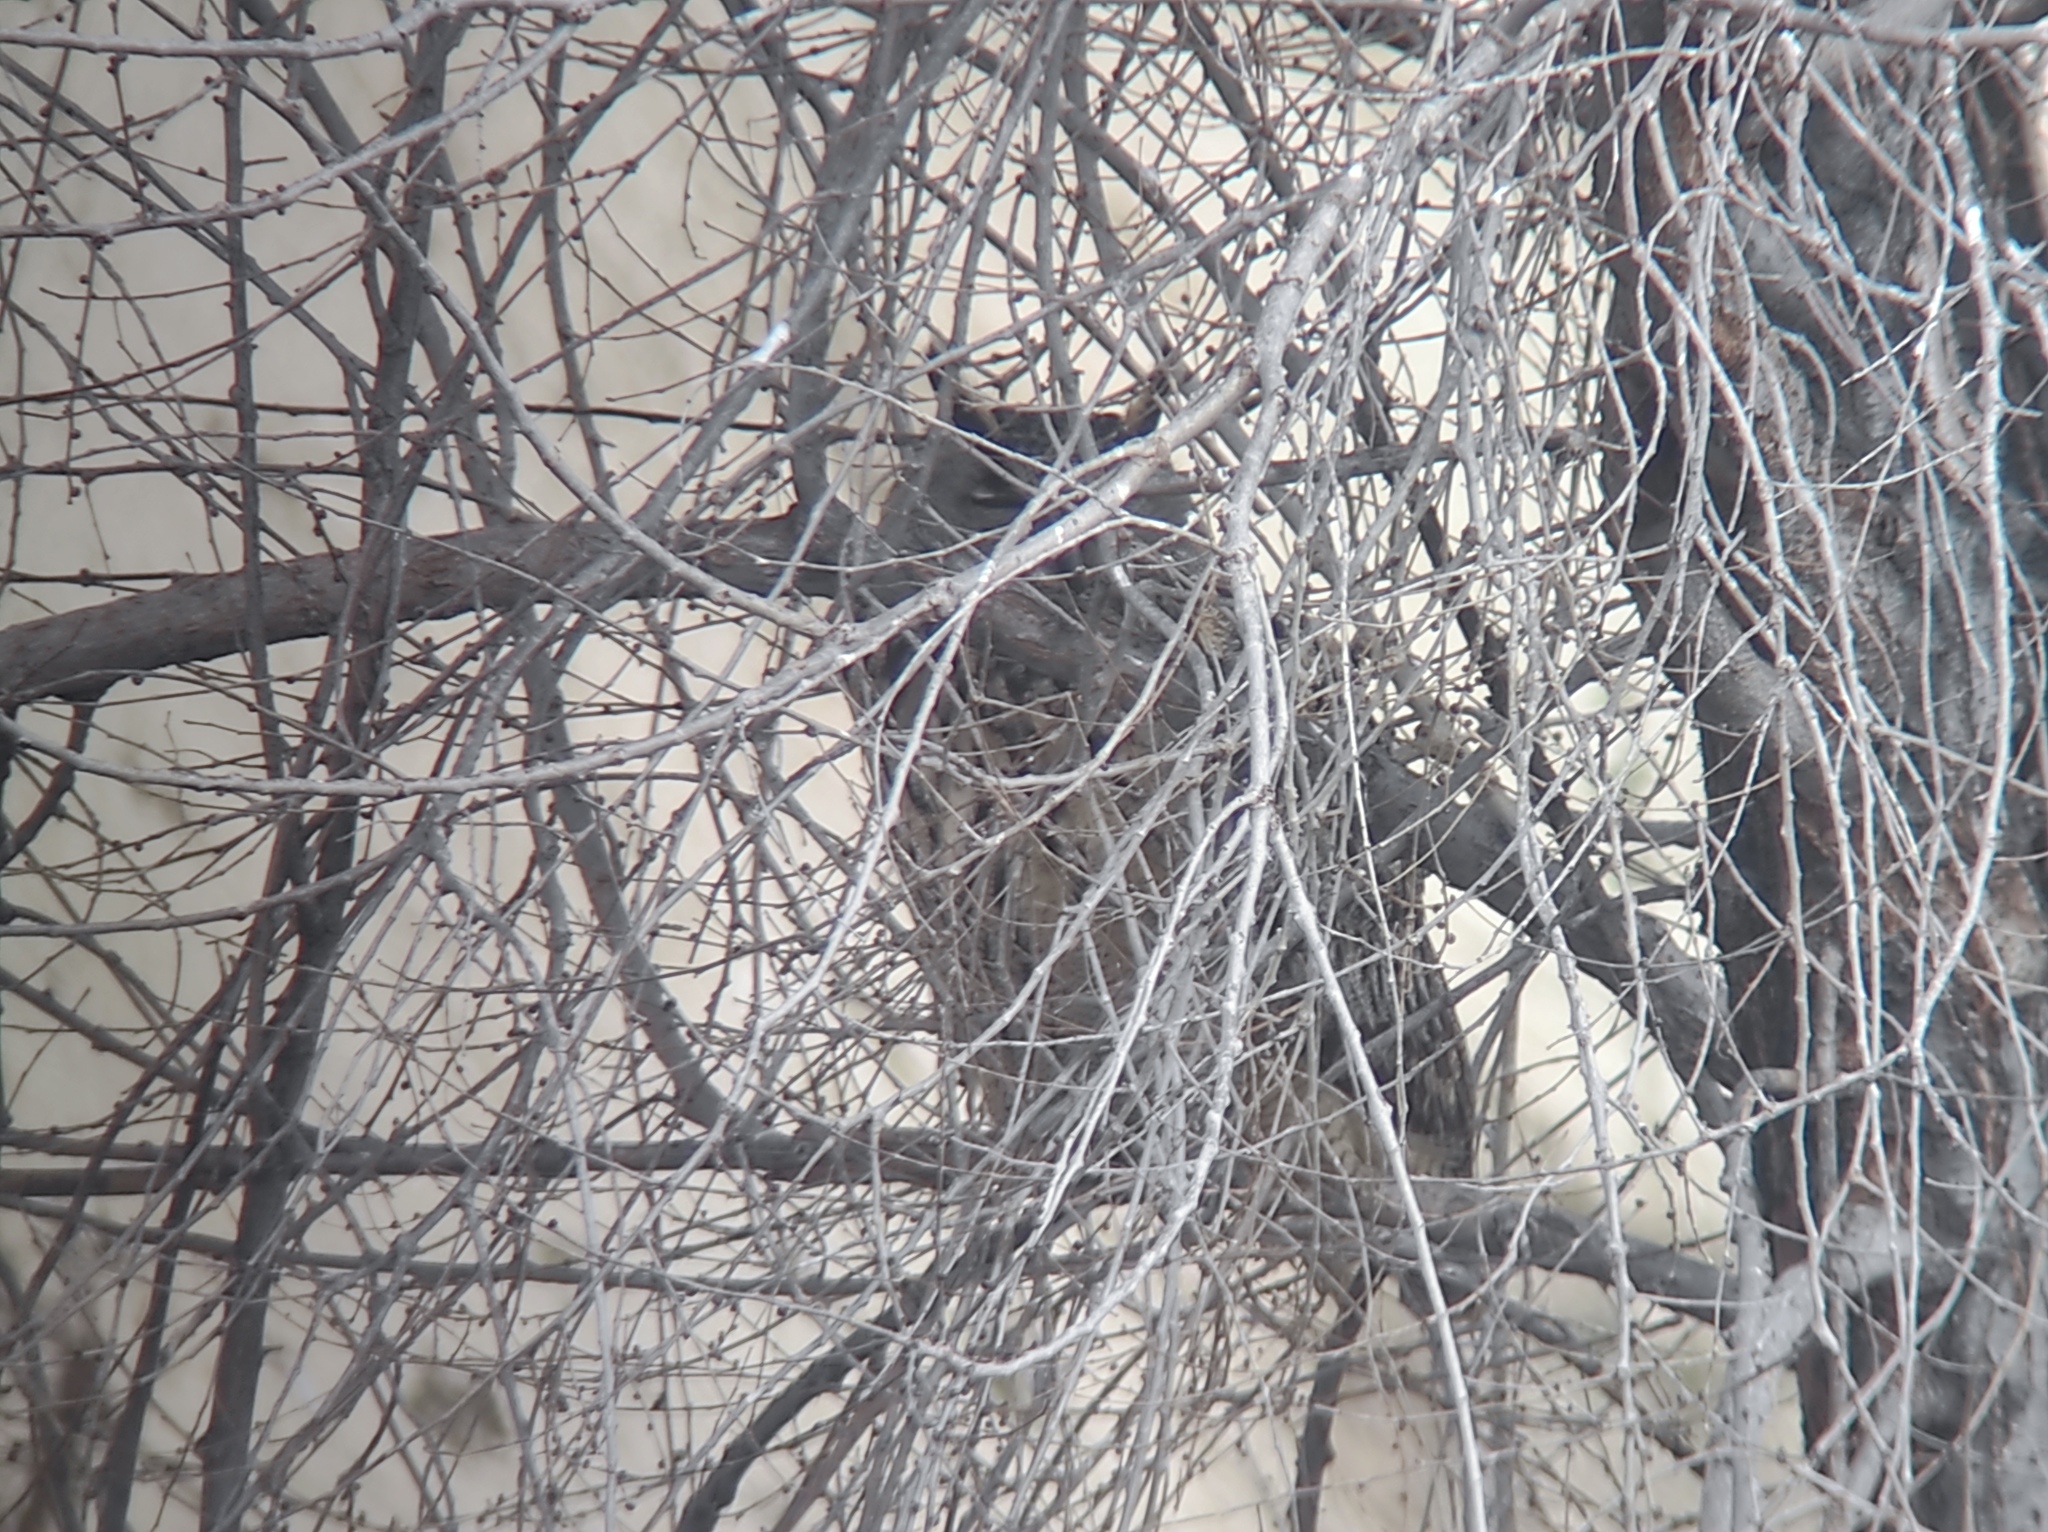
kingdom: Animalia
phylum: Chordata
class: Aves
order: Strigiformes
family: Strigidae
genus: Bubo
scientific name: Bubo bubo
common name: Eurasian eagle-owl
